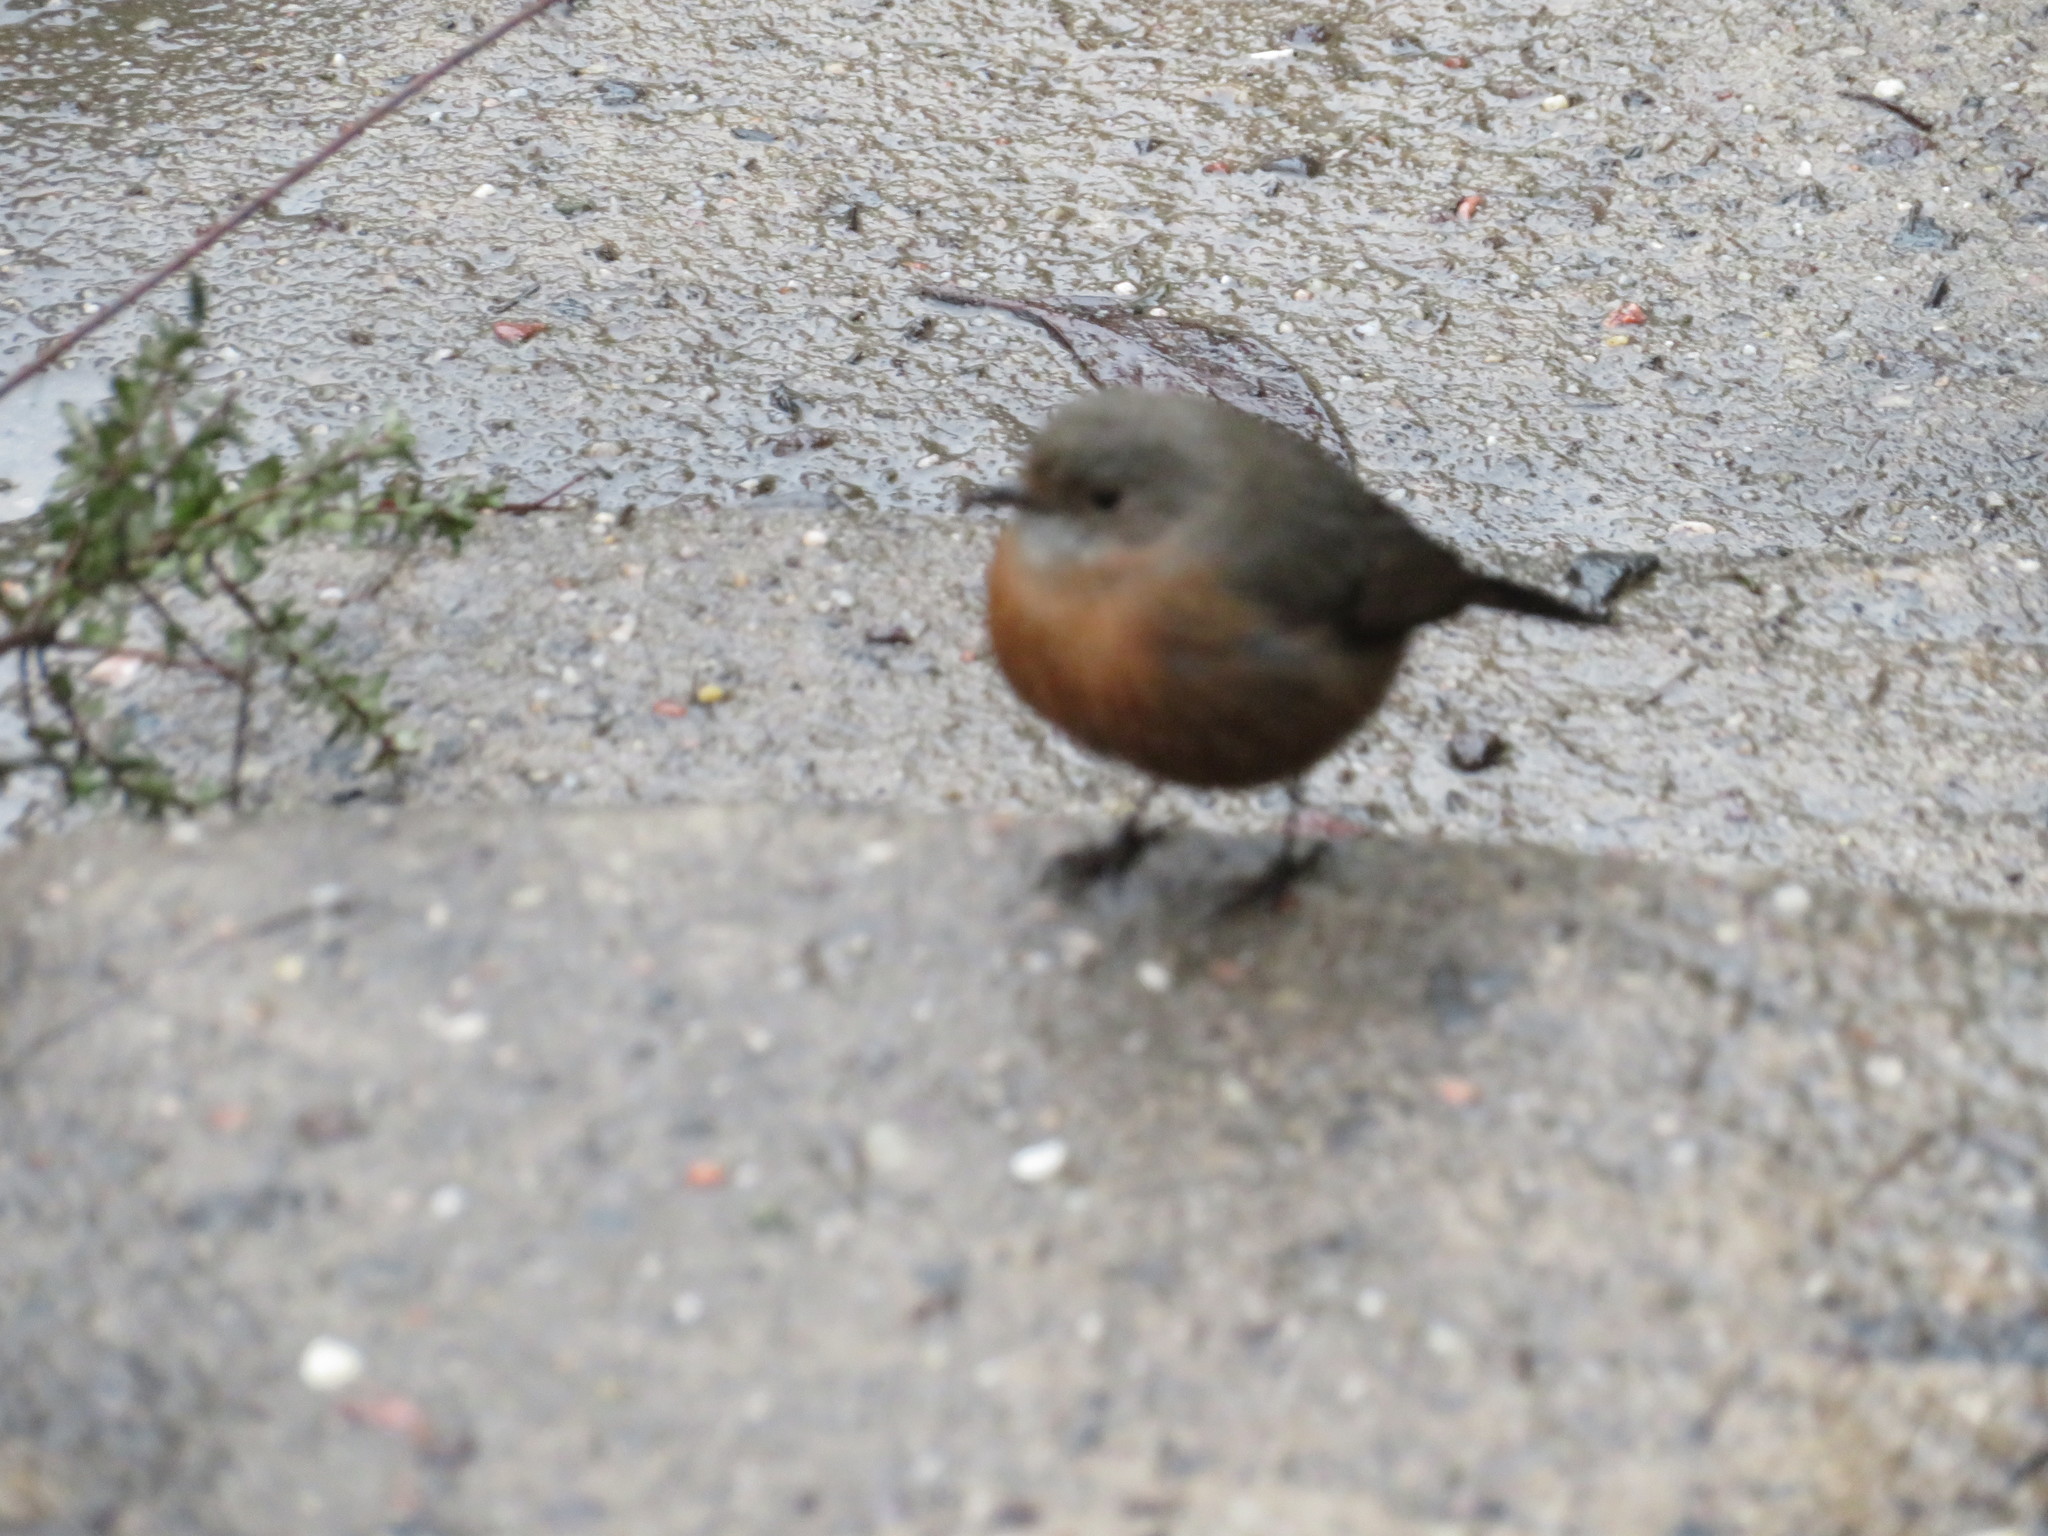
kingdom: Animalia
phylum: Chordata
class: Aves
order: Passeriformes
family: Acanthizidae
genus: Origma
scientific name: Origma solitaria
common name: Rockwarbler
